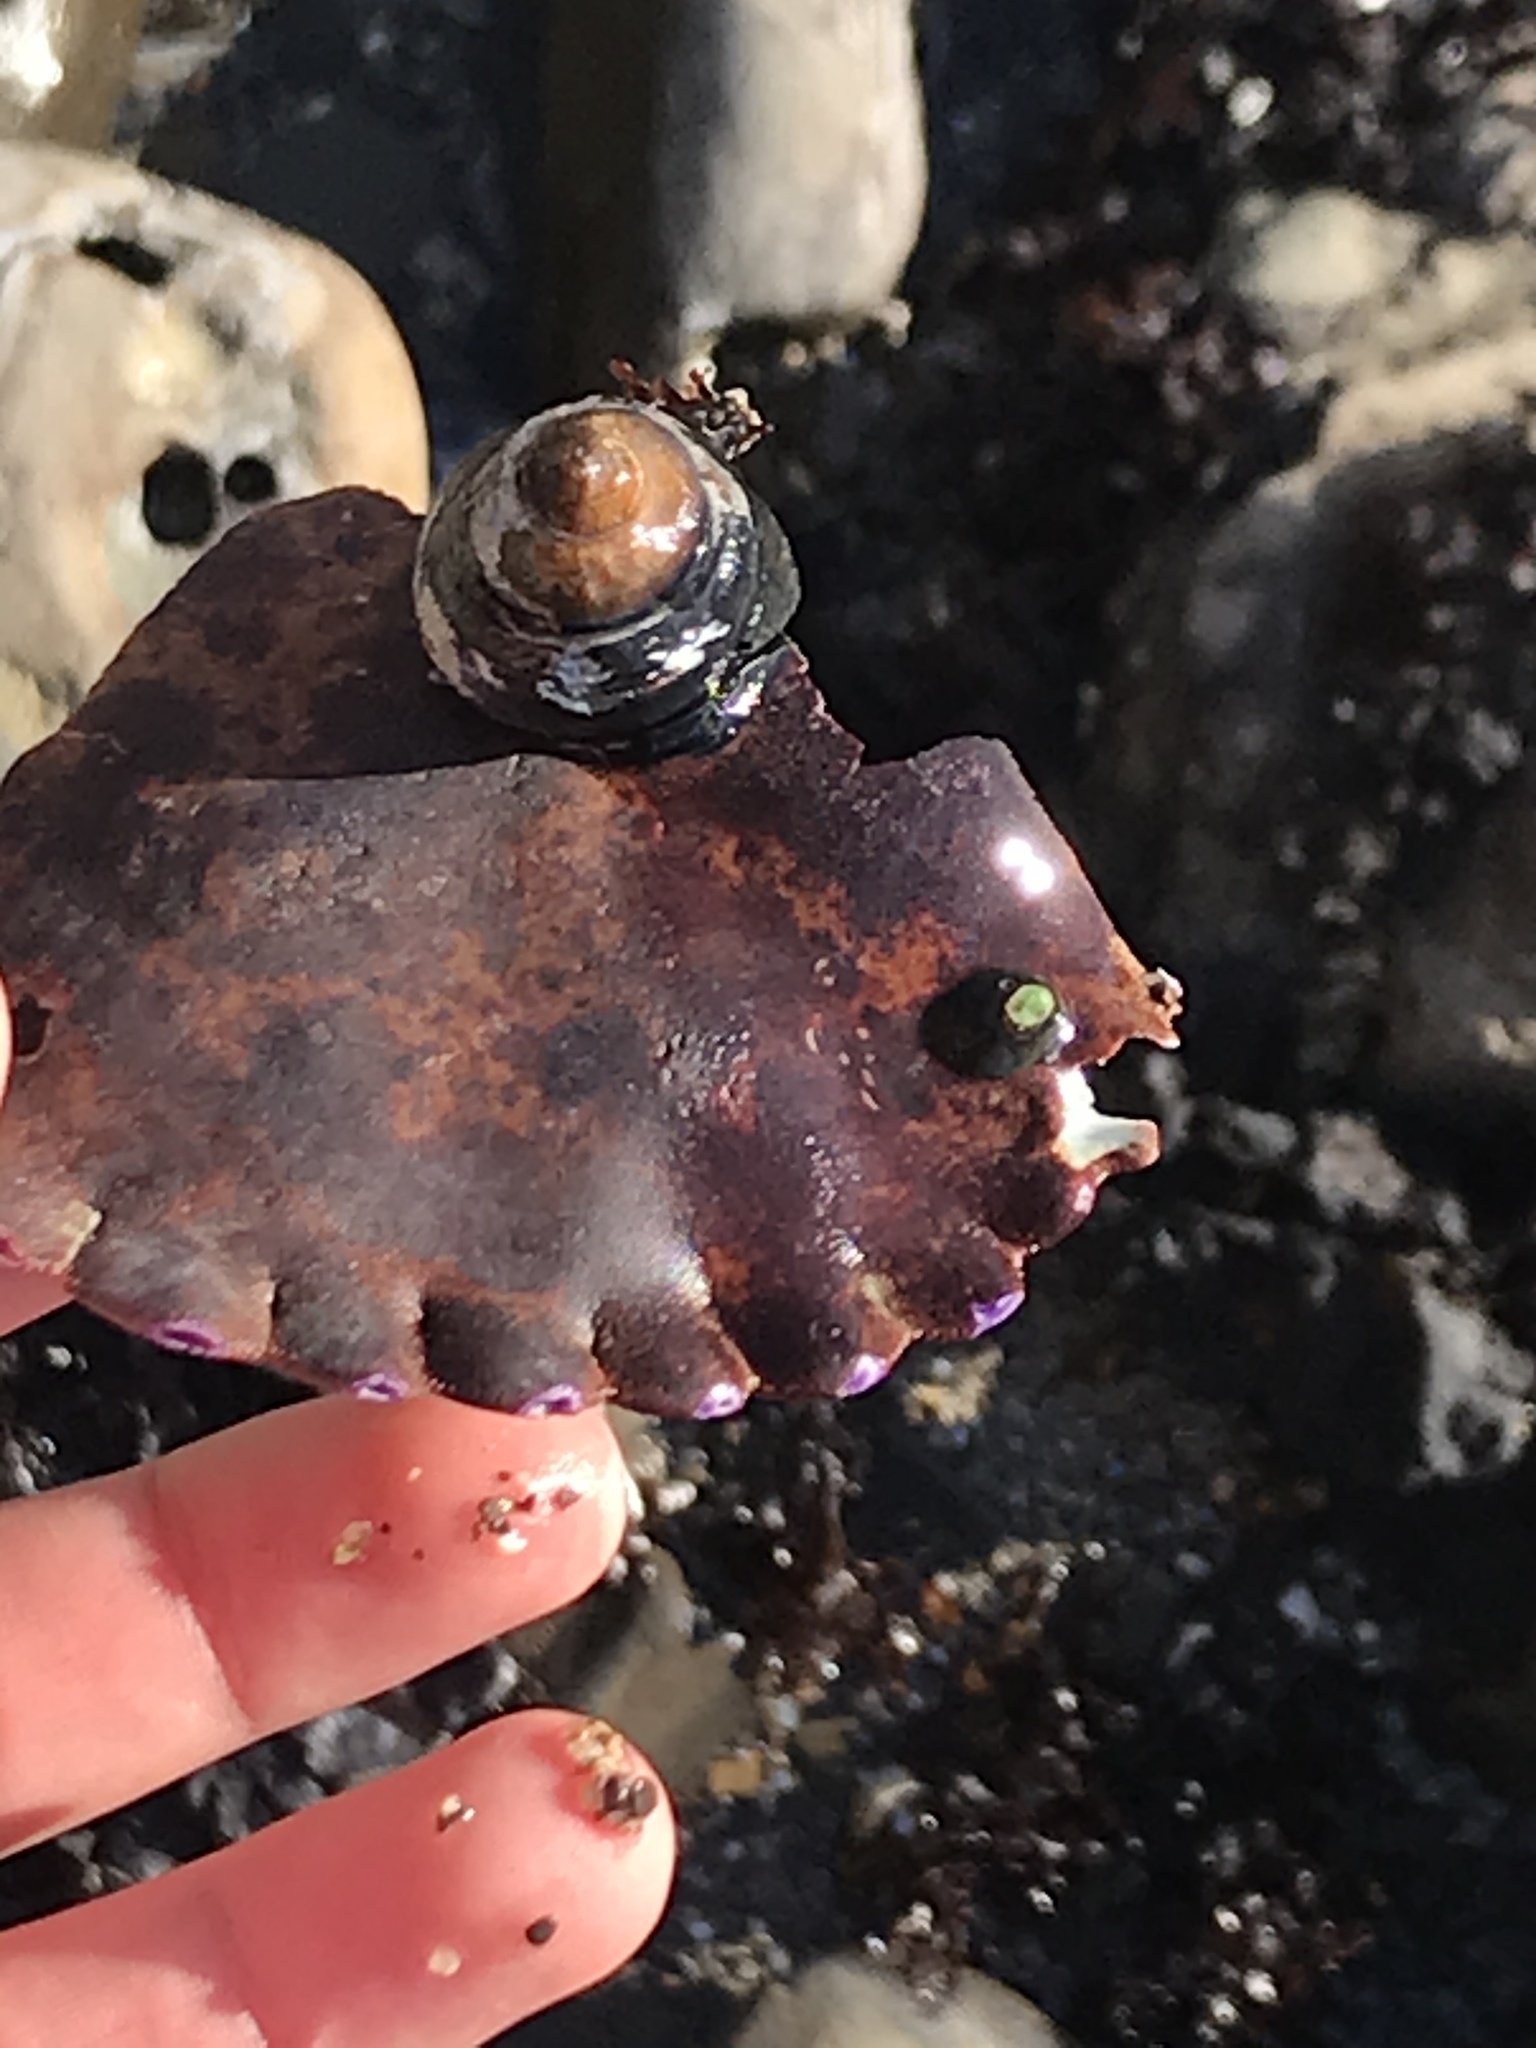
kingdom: Animalia
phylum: Arthropoda
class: Malacostraca
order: Decapoda
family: Cancridae
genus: Romaleon
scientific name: Romaleon antennarium
